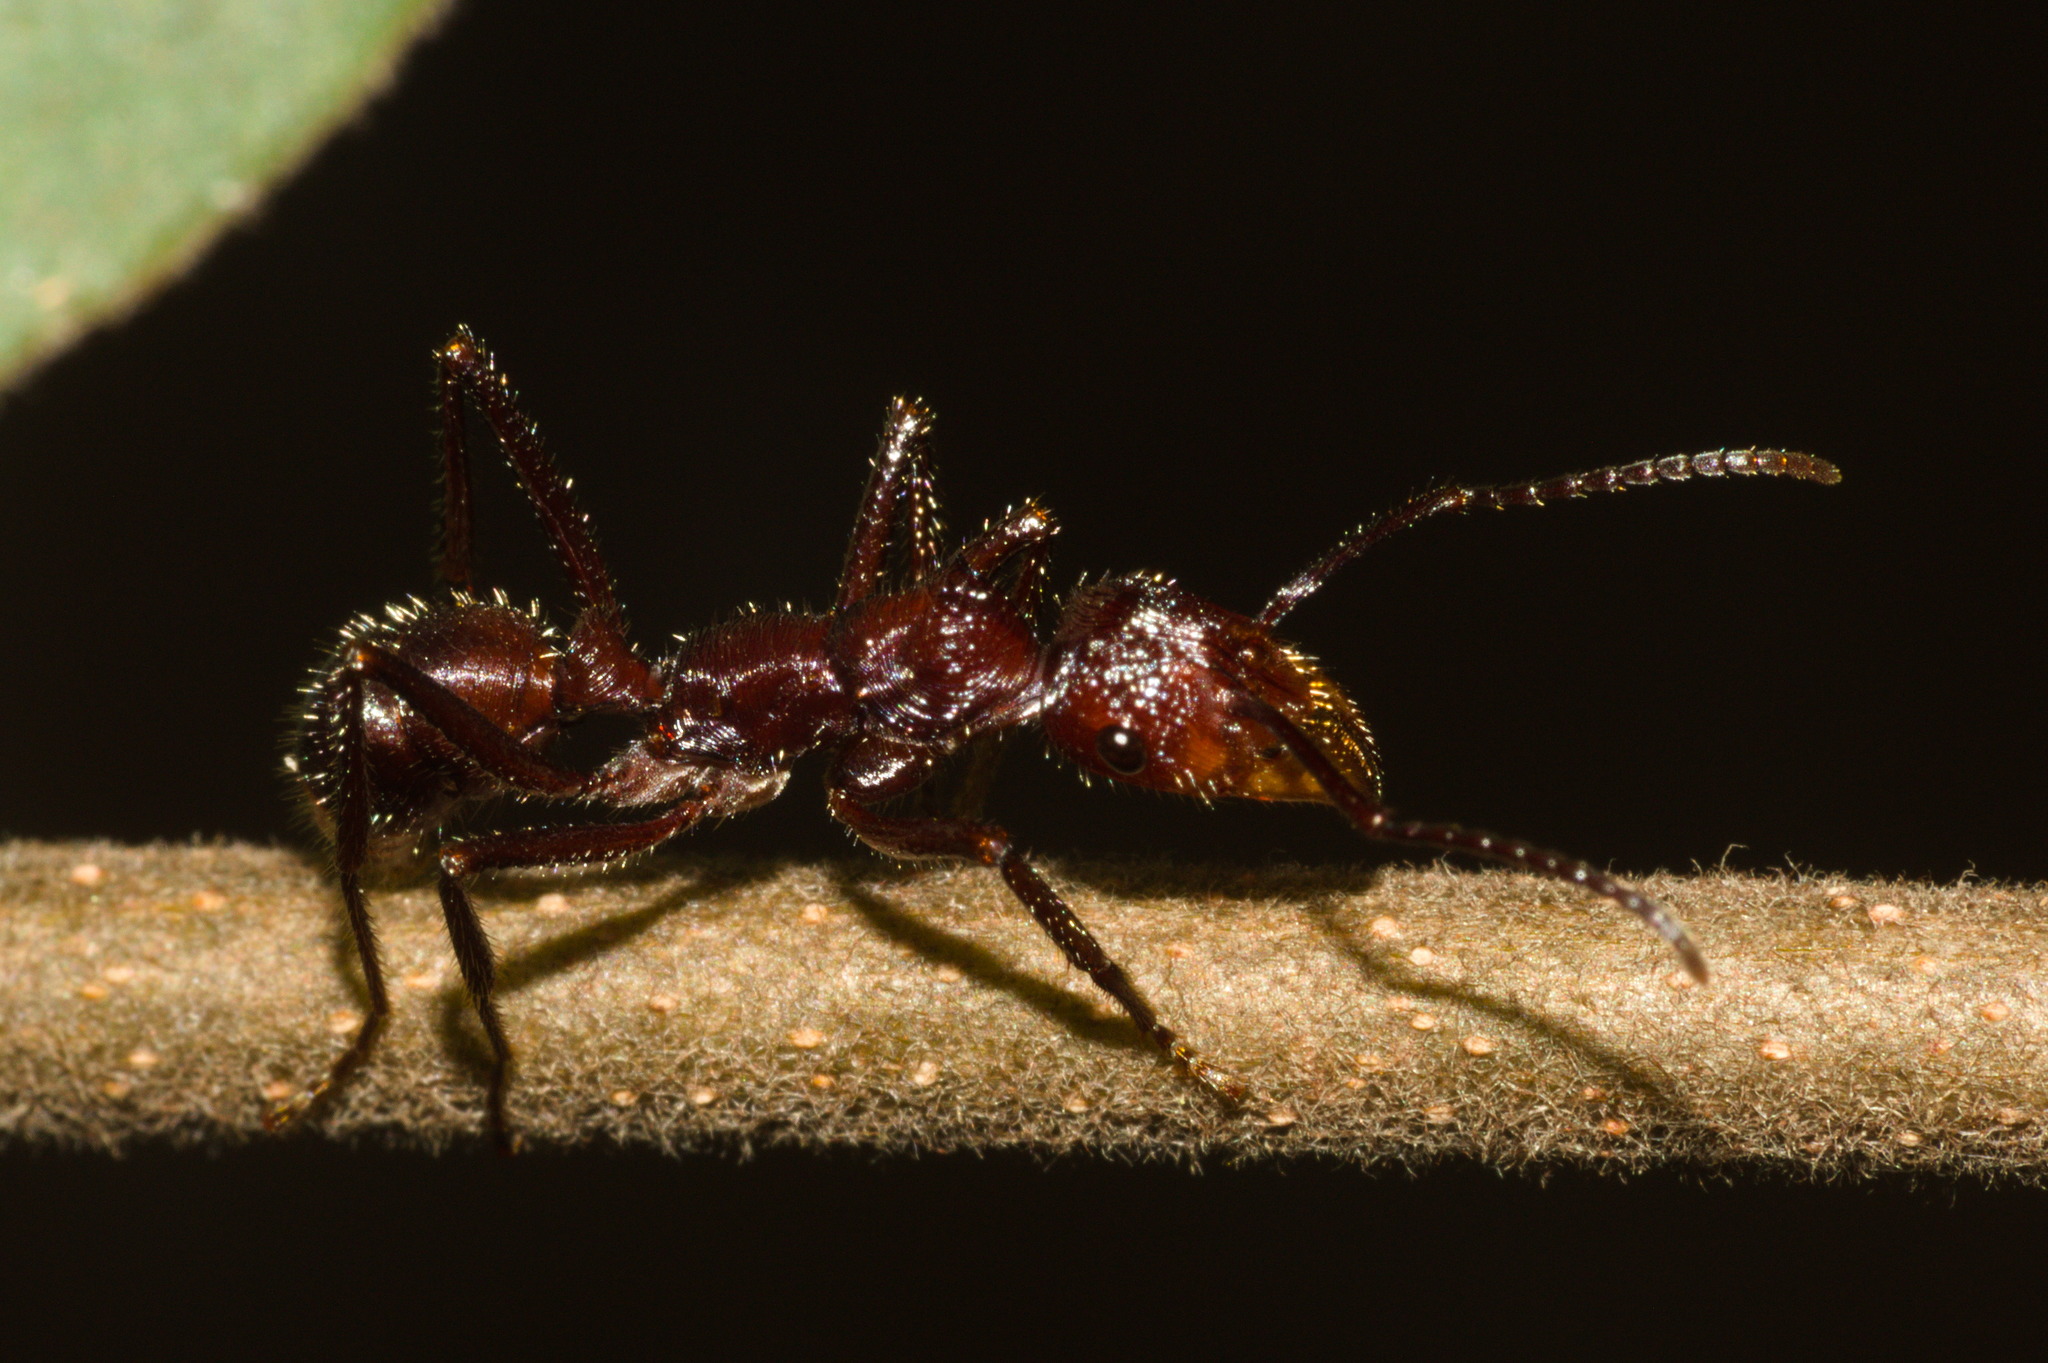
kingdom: Animalia
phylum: Arthropoda
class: Insecta
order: Hymenoptera
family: Formicidae
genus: Ectatomma
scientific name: Ectatomma tuberculatum
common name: Ant
